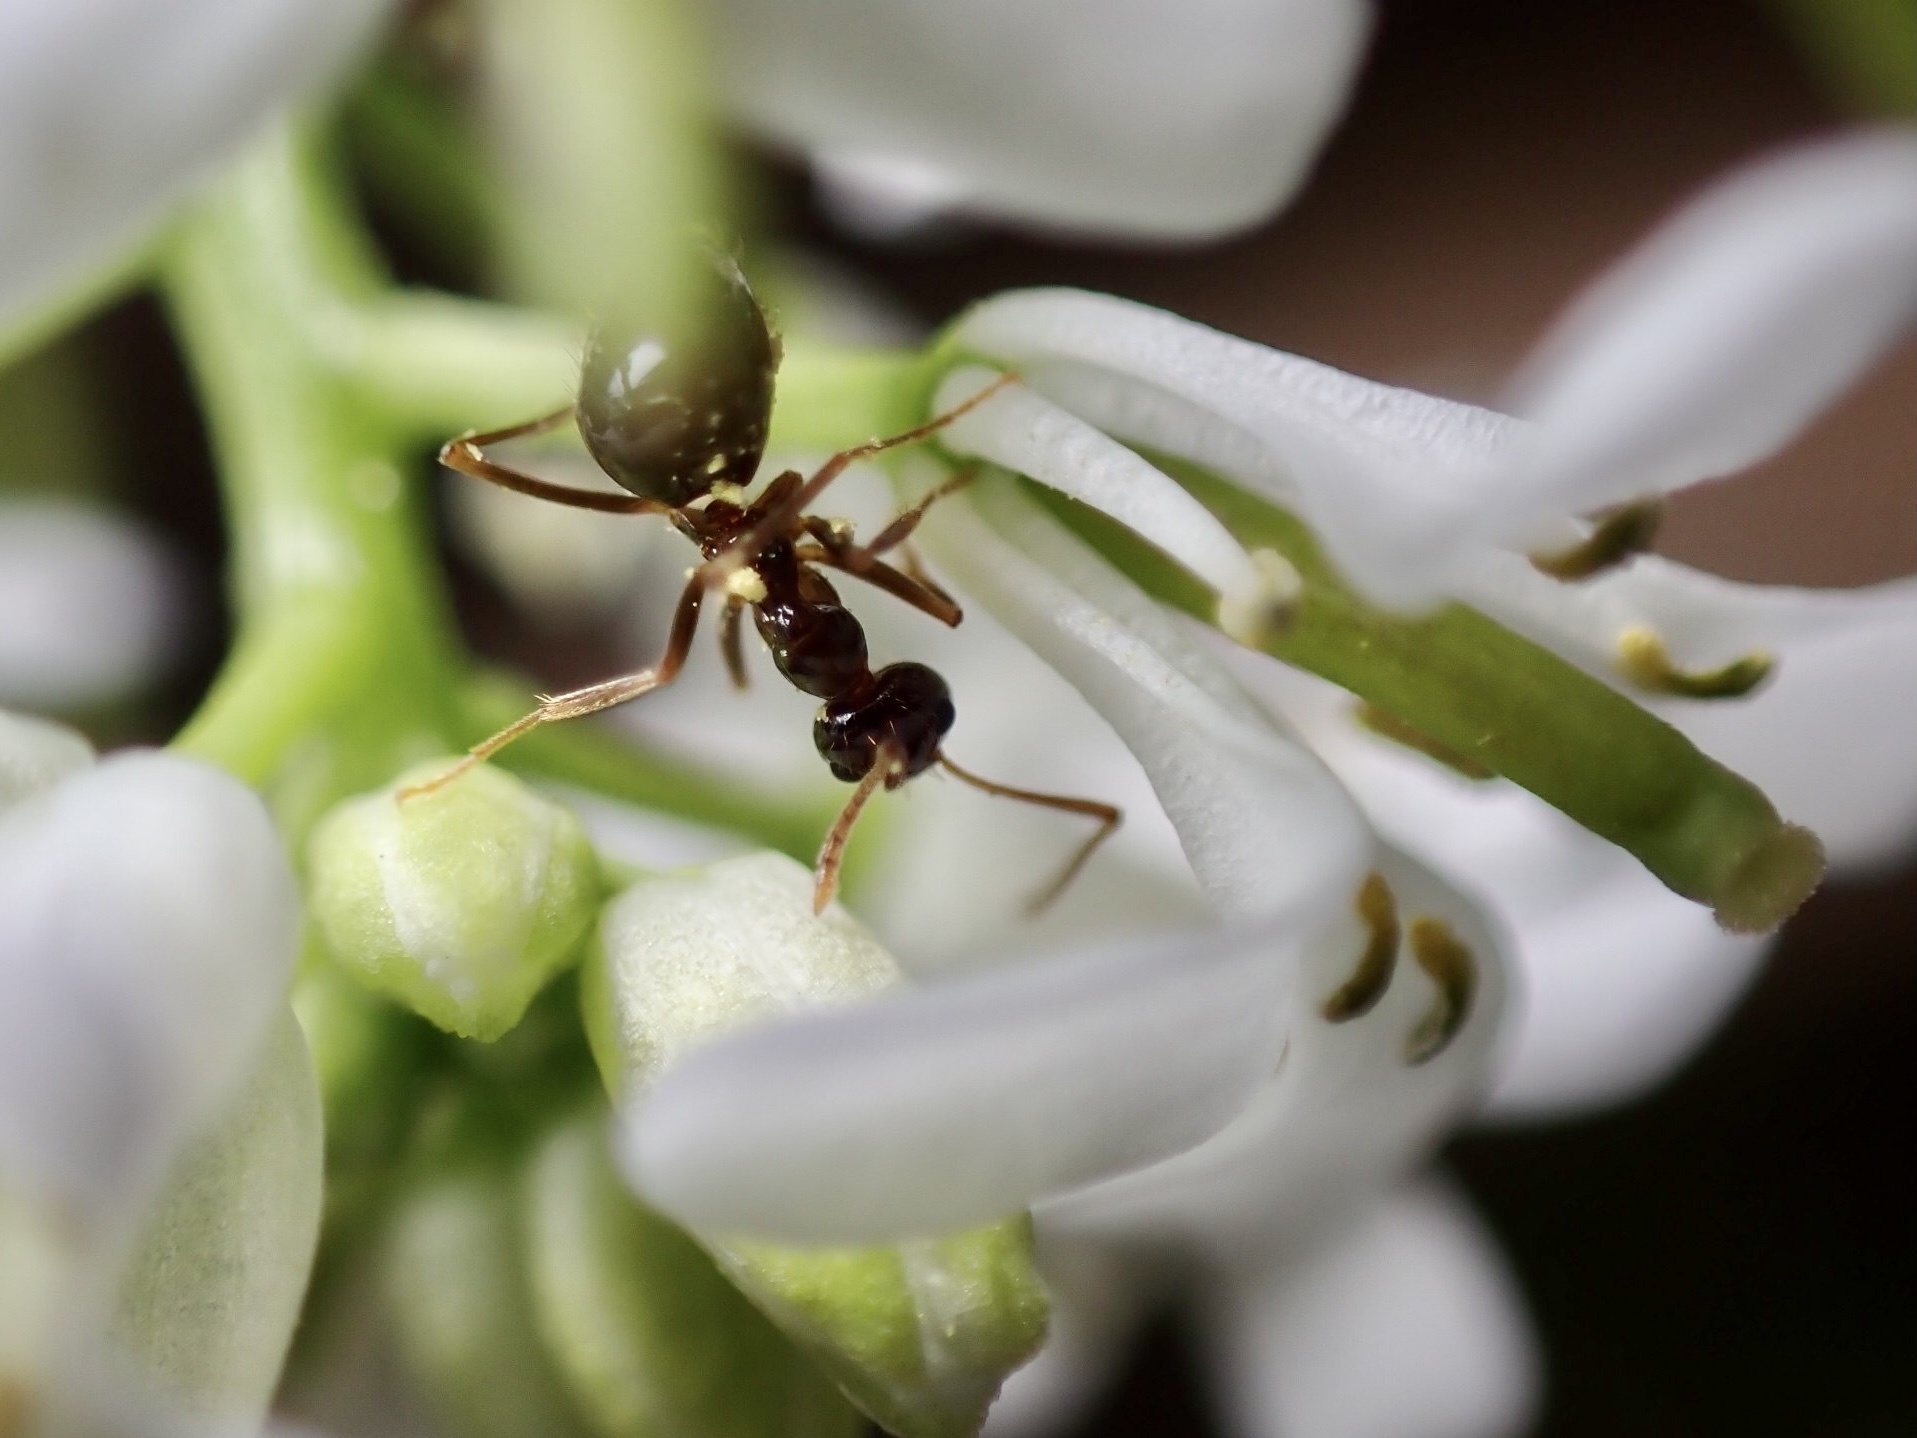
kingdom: Animalia
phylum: Arthropoda
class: Insecta
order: Hymenoptera
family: Formicidae
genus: Prenolepis
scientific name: Prenolepis imparis
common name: Small honey ant
